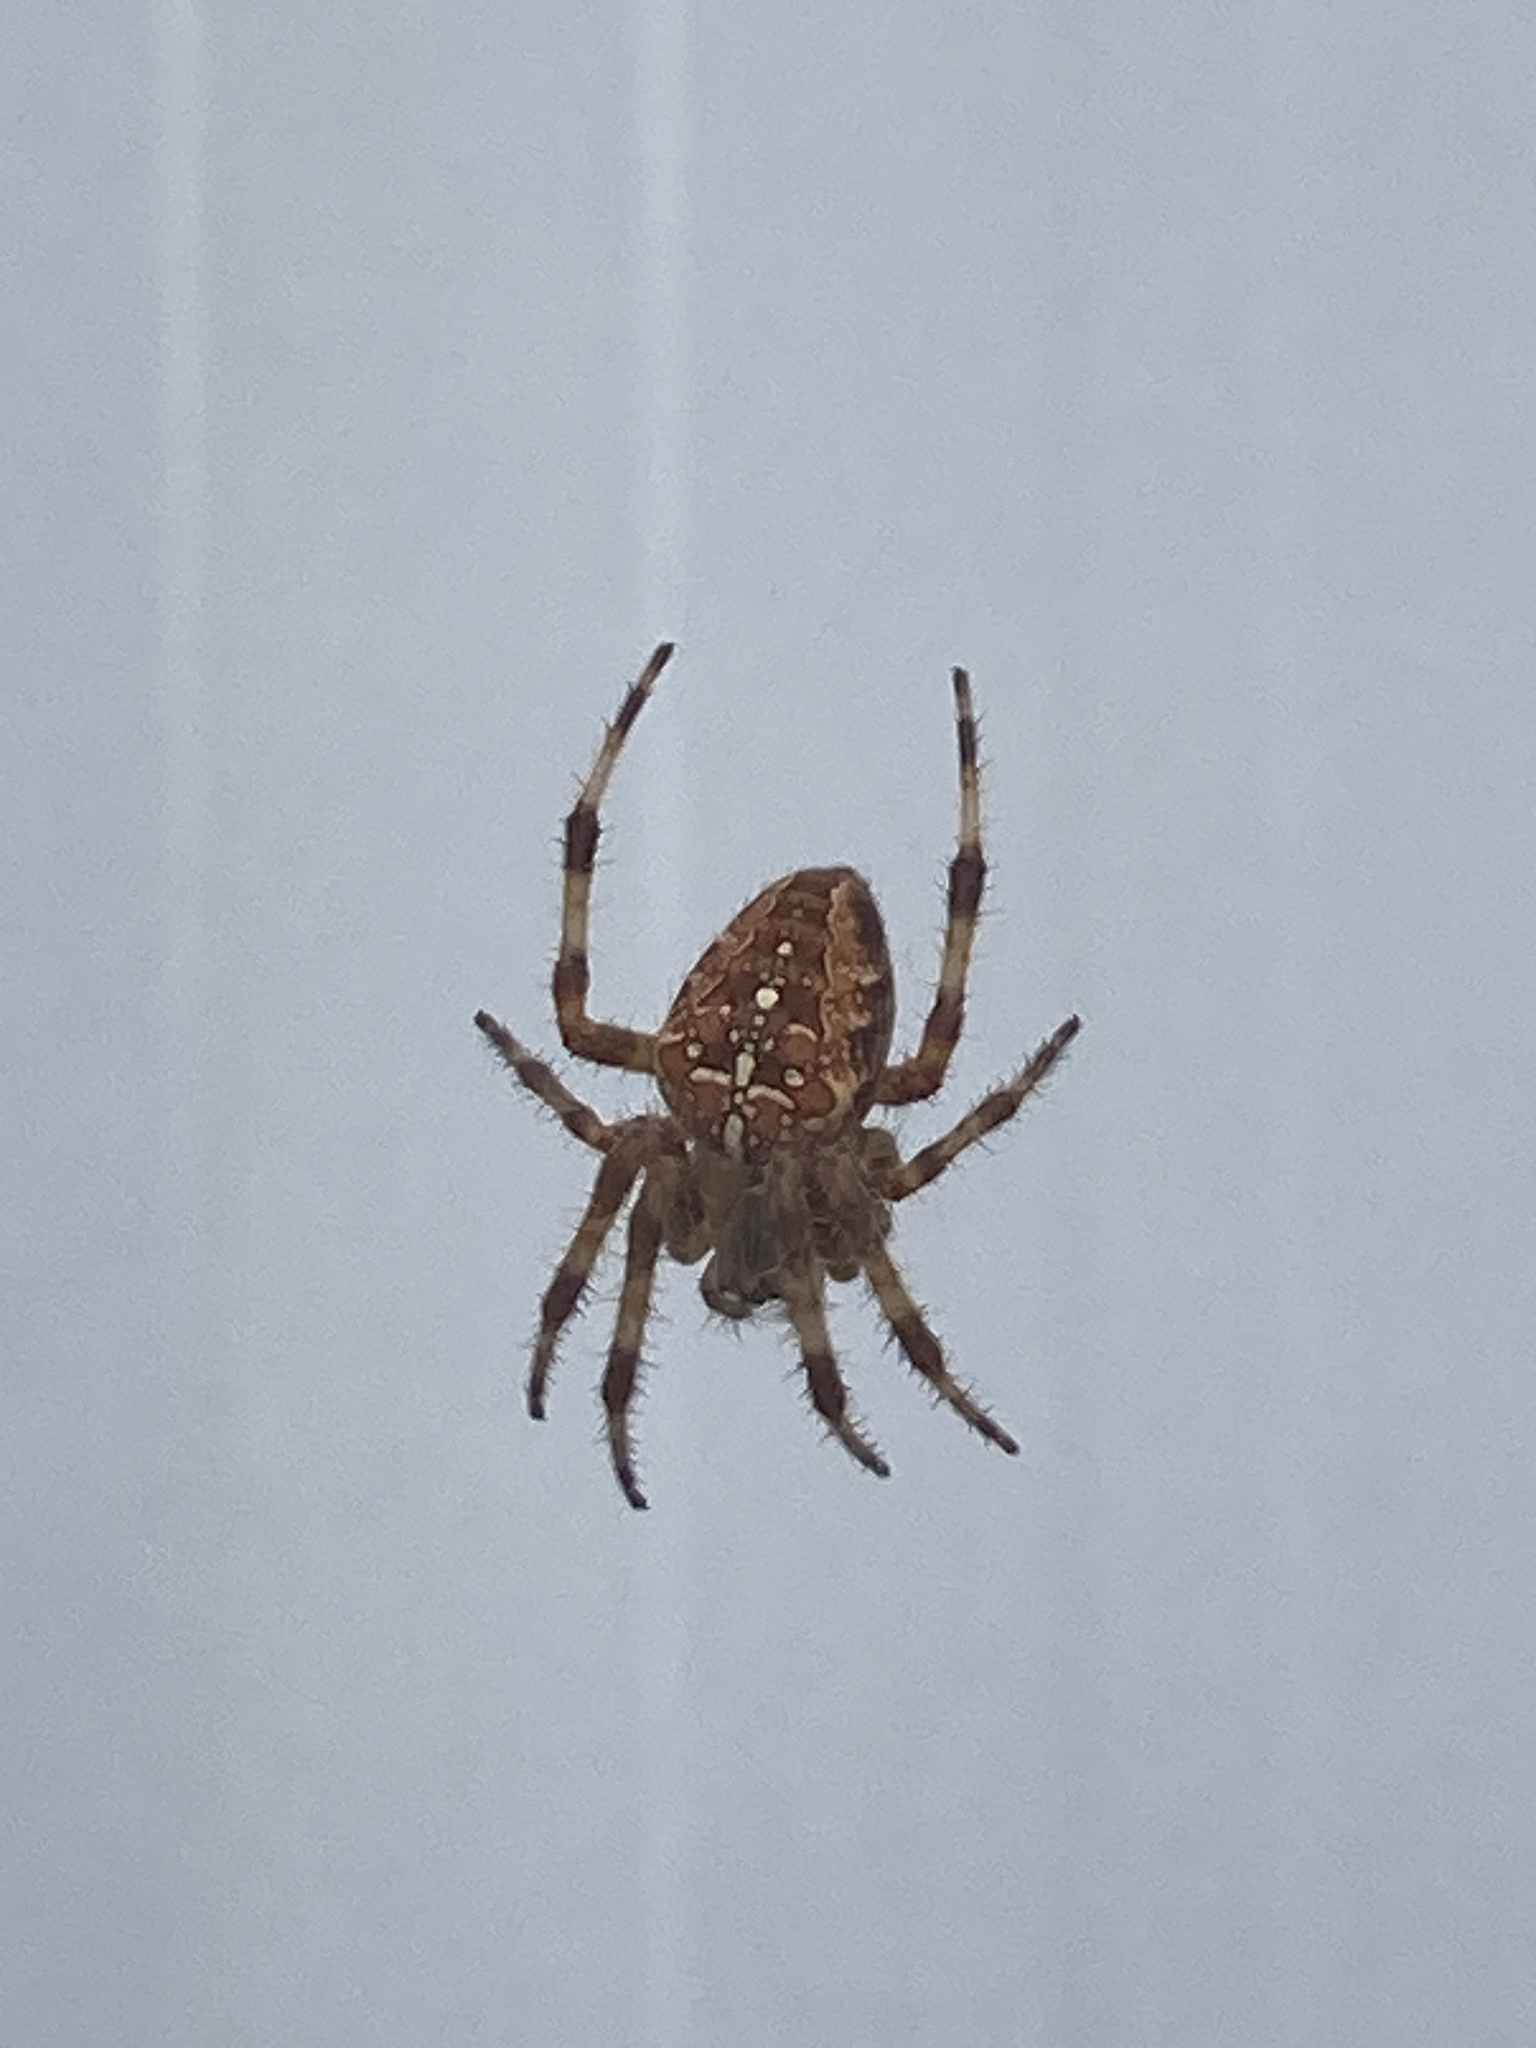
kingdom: Animalia
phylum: Arthropoda
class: Arachnida
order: Araneae
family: Araneidae
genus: Araneus
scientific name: Araneus diadematus
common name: Cross orbweaver
